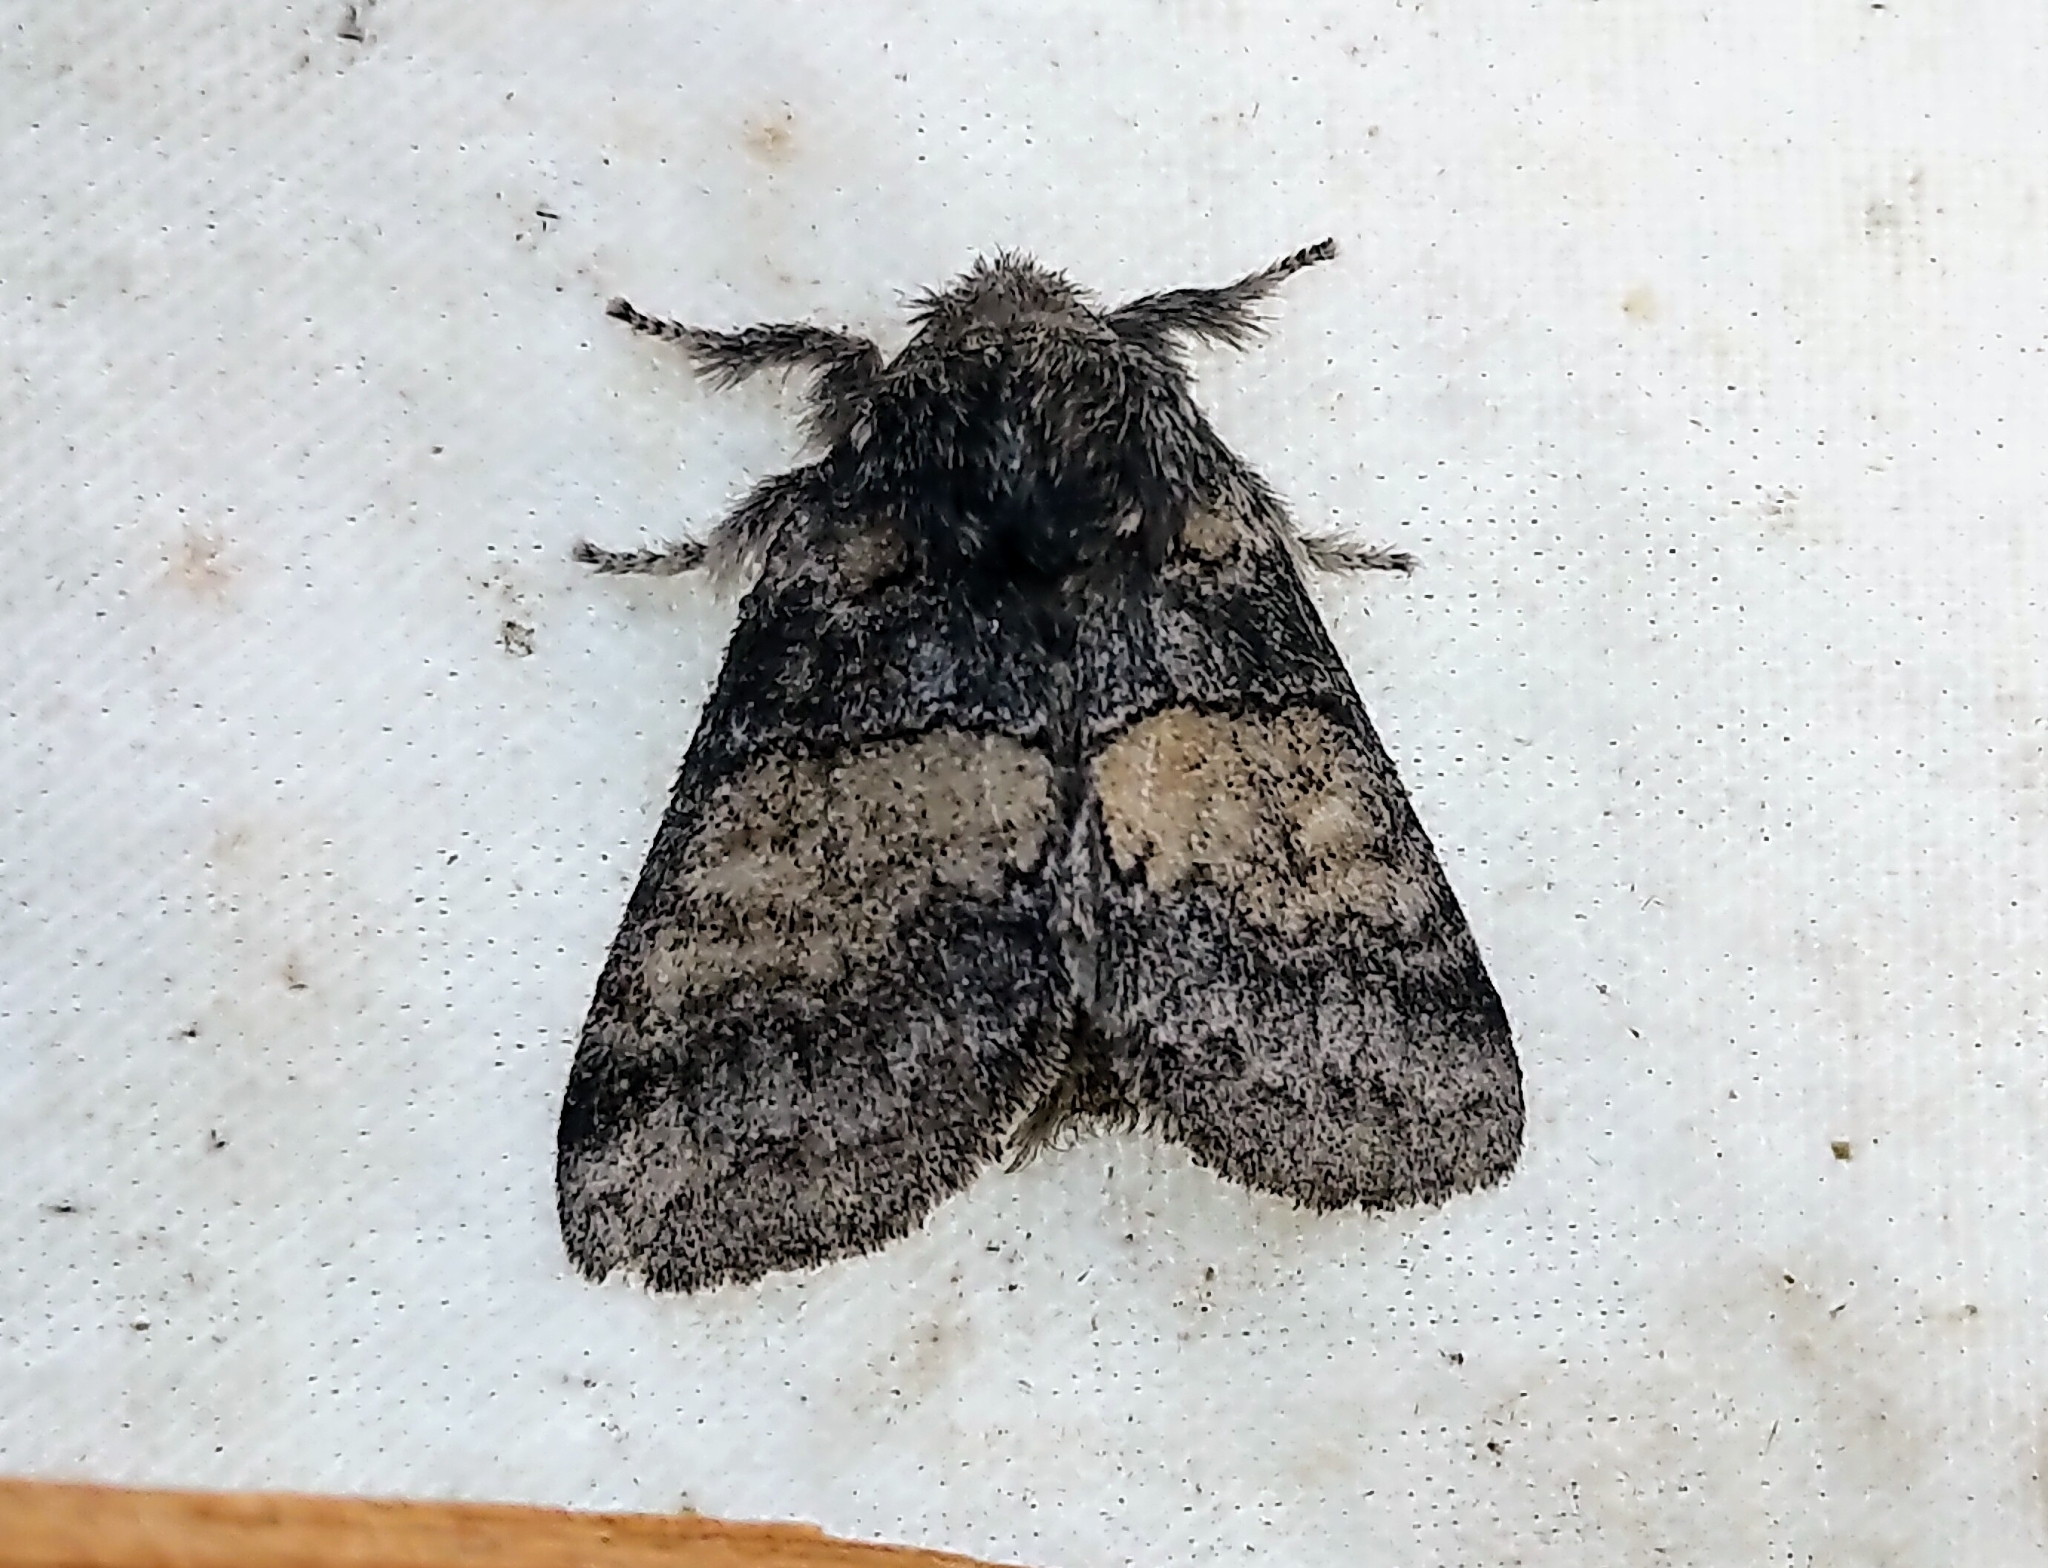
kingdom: Animalia
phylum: Arthropoda
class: Insecta
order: Lepidoptera
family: Notodontidae
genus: Gluphisia
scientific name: Gluphisia septentrionis
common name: Common gluphisia
